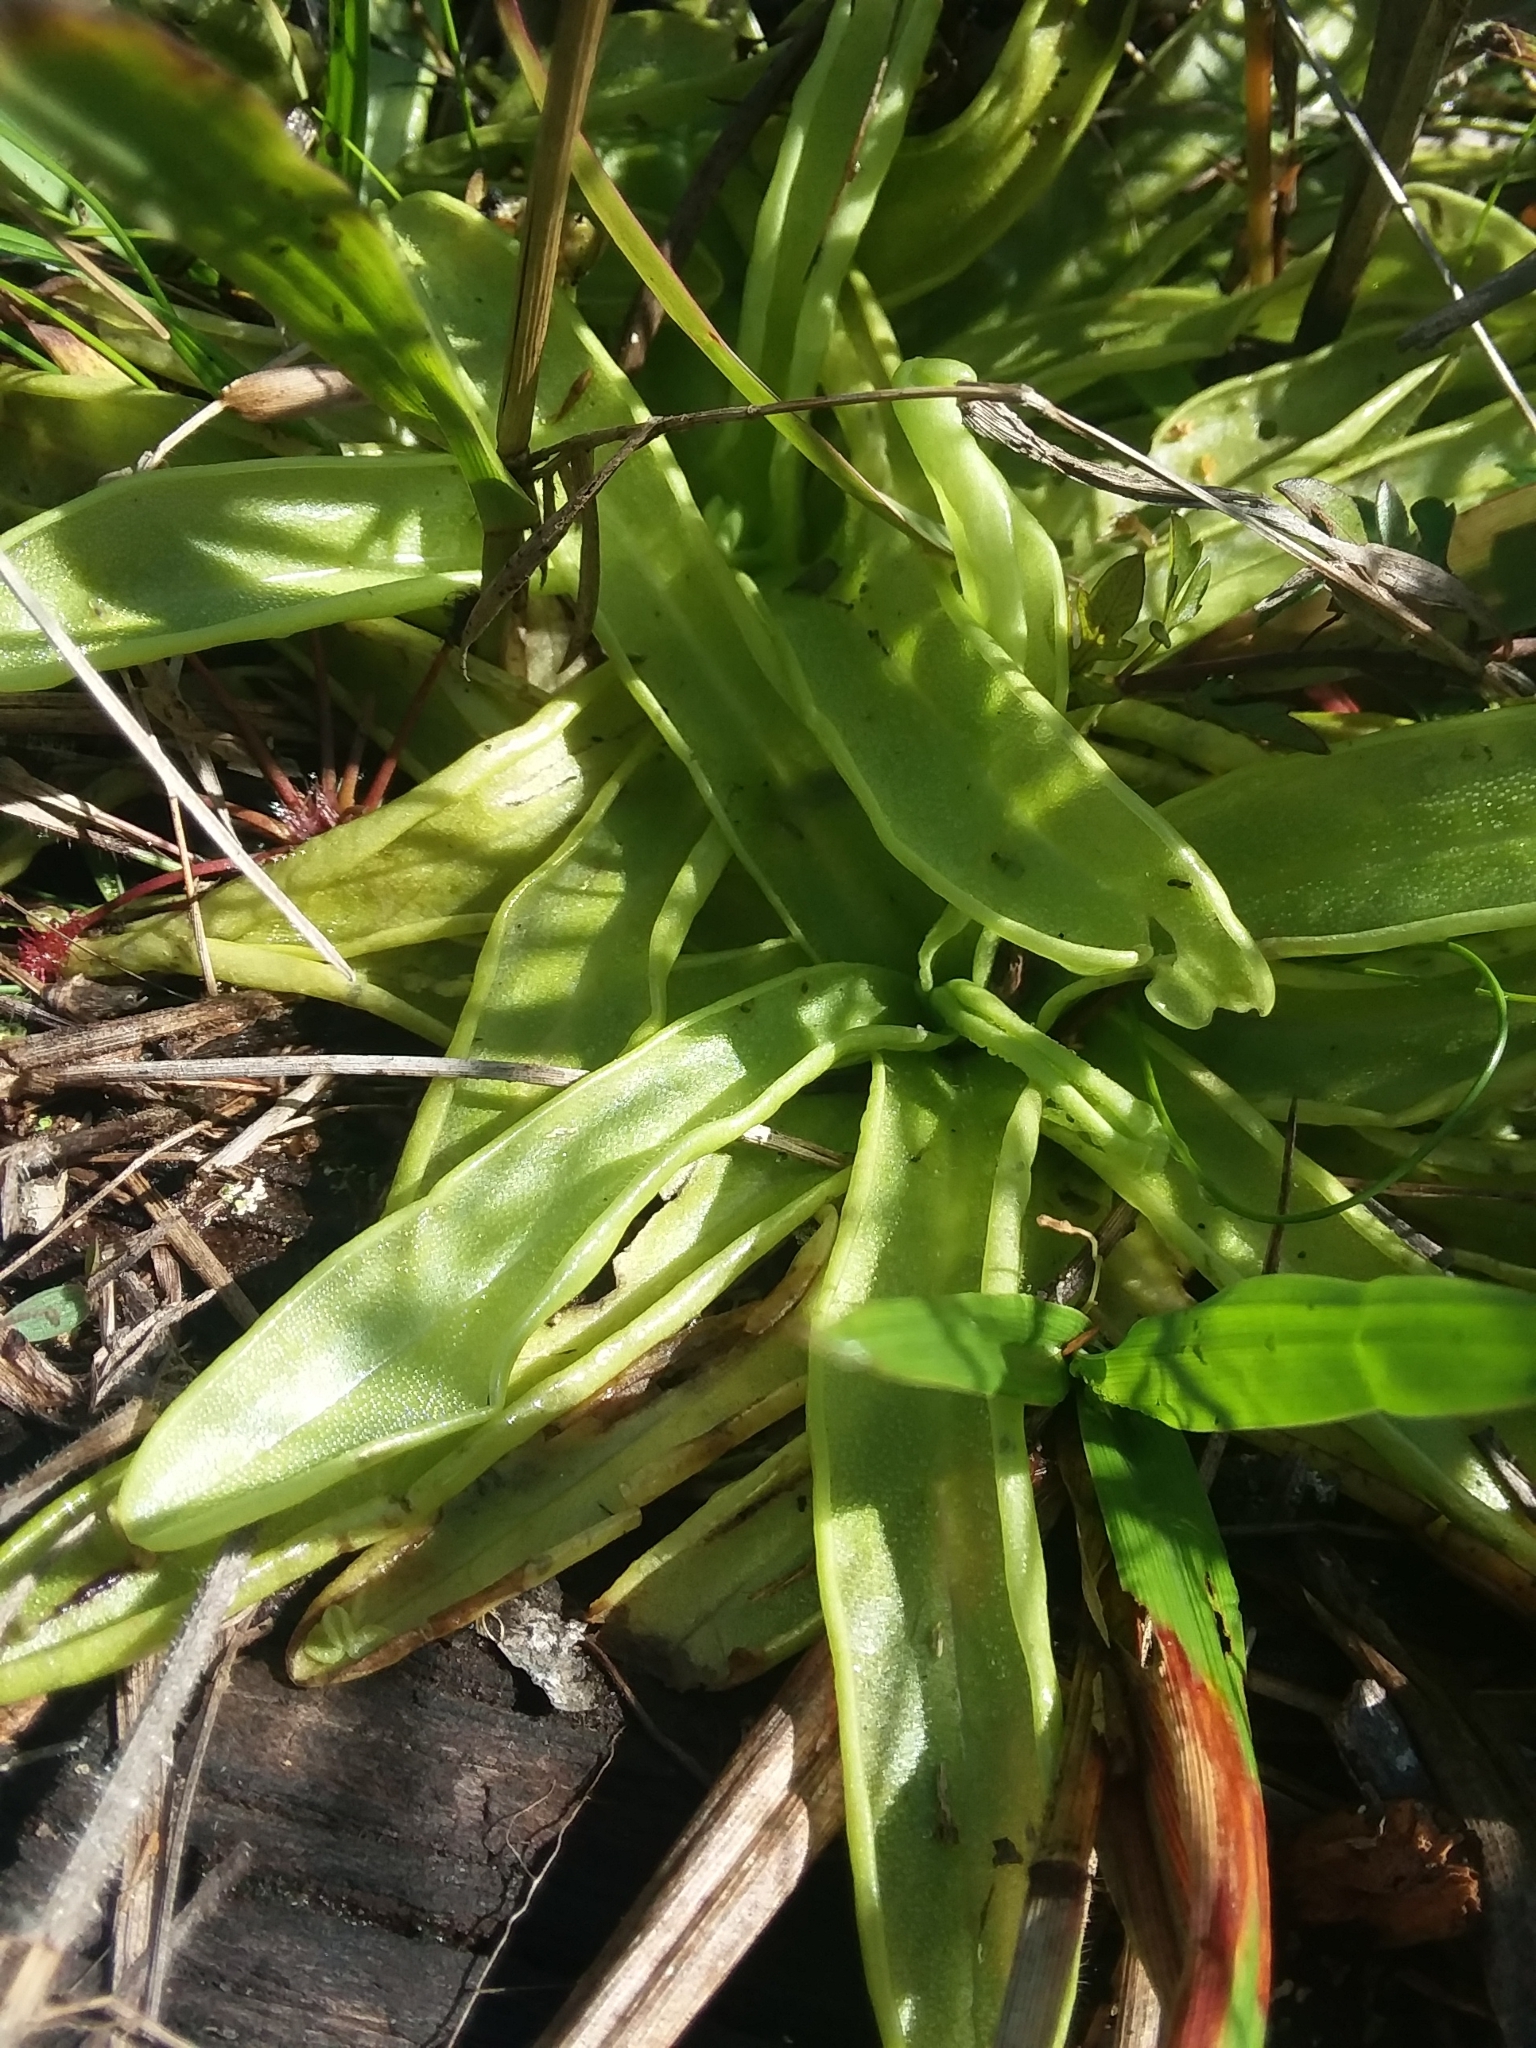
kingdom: Plantae
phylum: Tracheophyta
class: Magnoliopsida
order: Lamiales
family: Lentibulariaceae
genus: Pinguicula
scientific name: Pinguicula primuliflora
